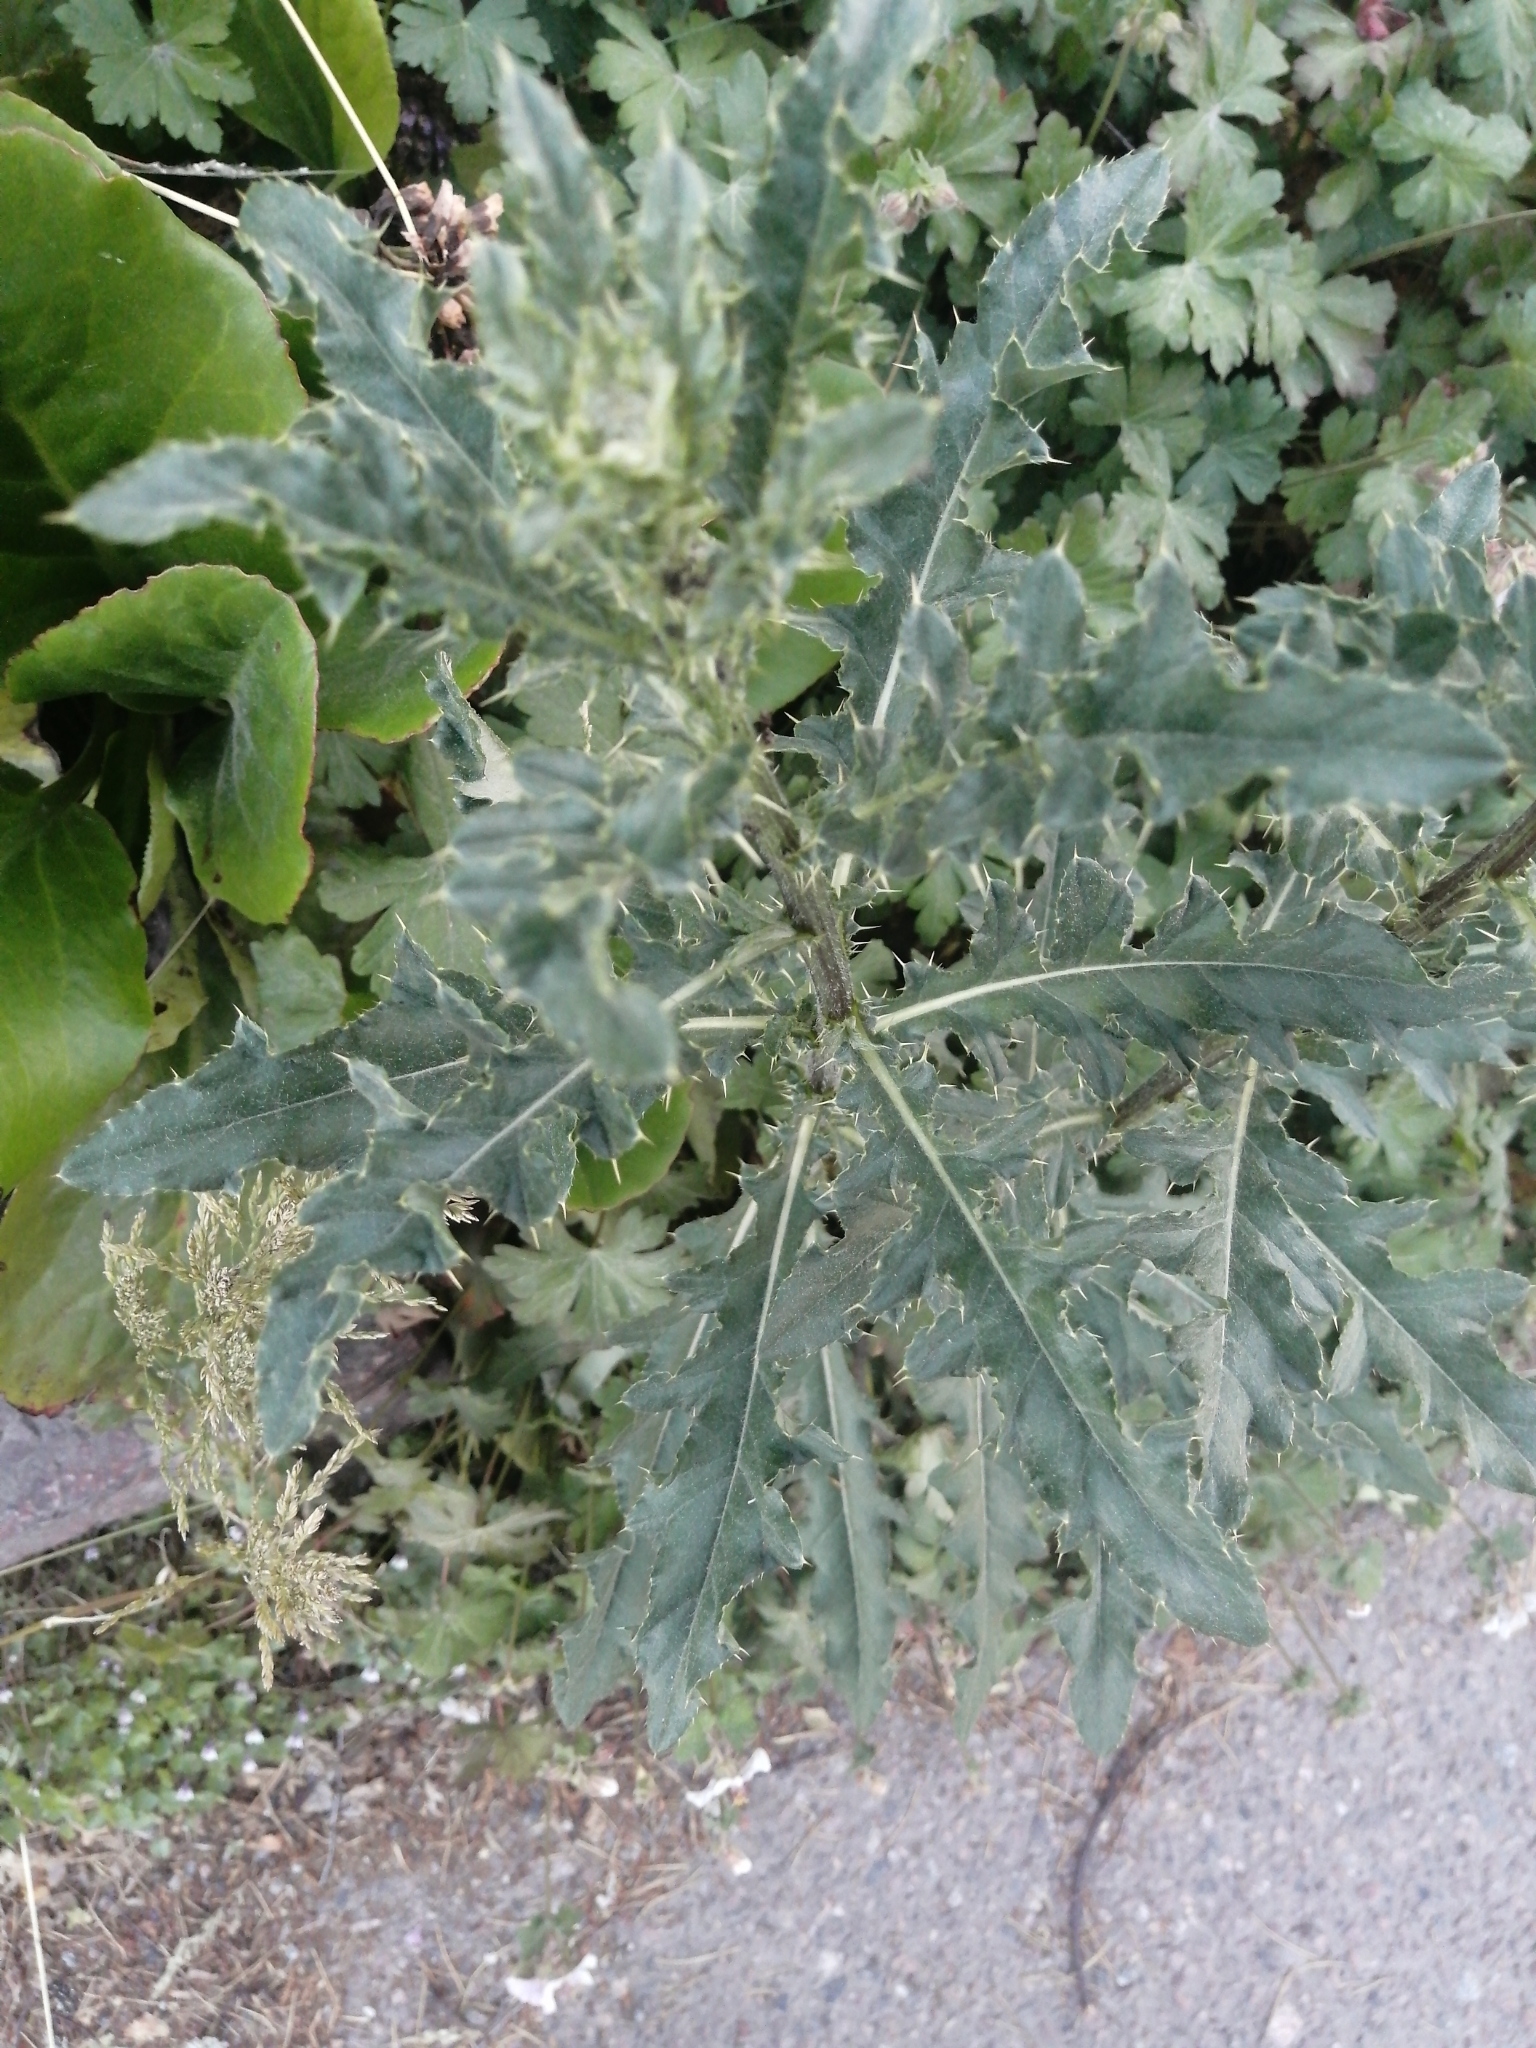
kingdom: Plantae
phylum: Tracheophyta
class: Magnoliopsida
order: Asterales
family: Asteraceae
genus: Cirsium
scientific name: Cirsium arvense
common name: Creeping thistle
